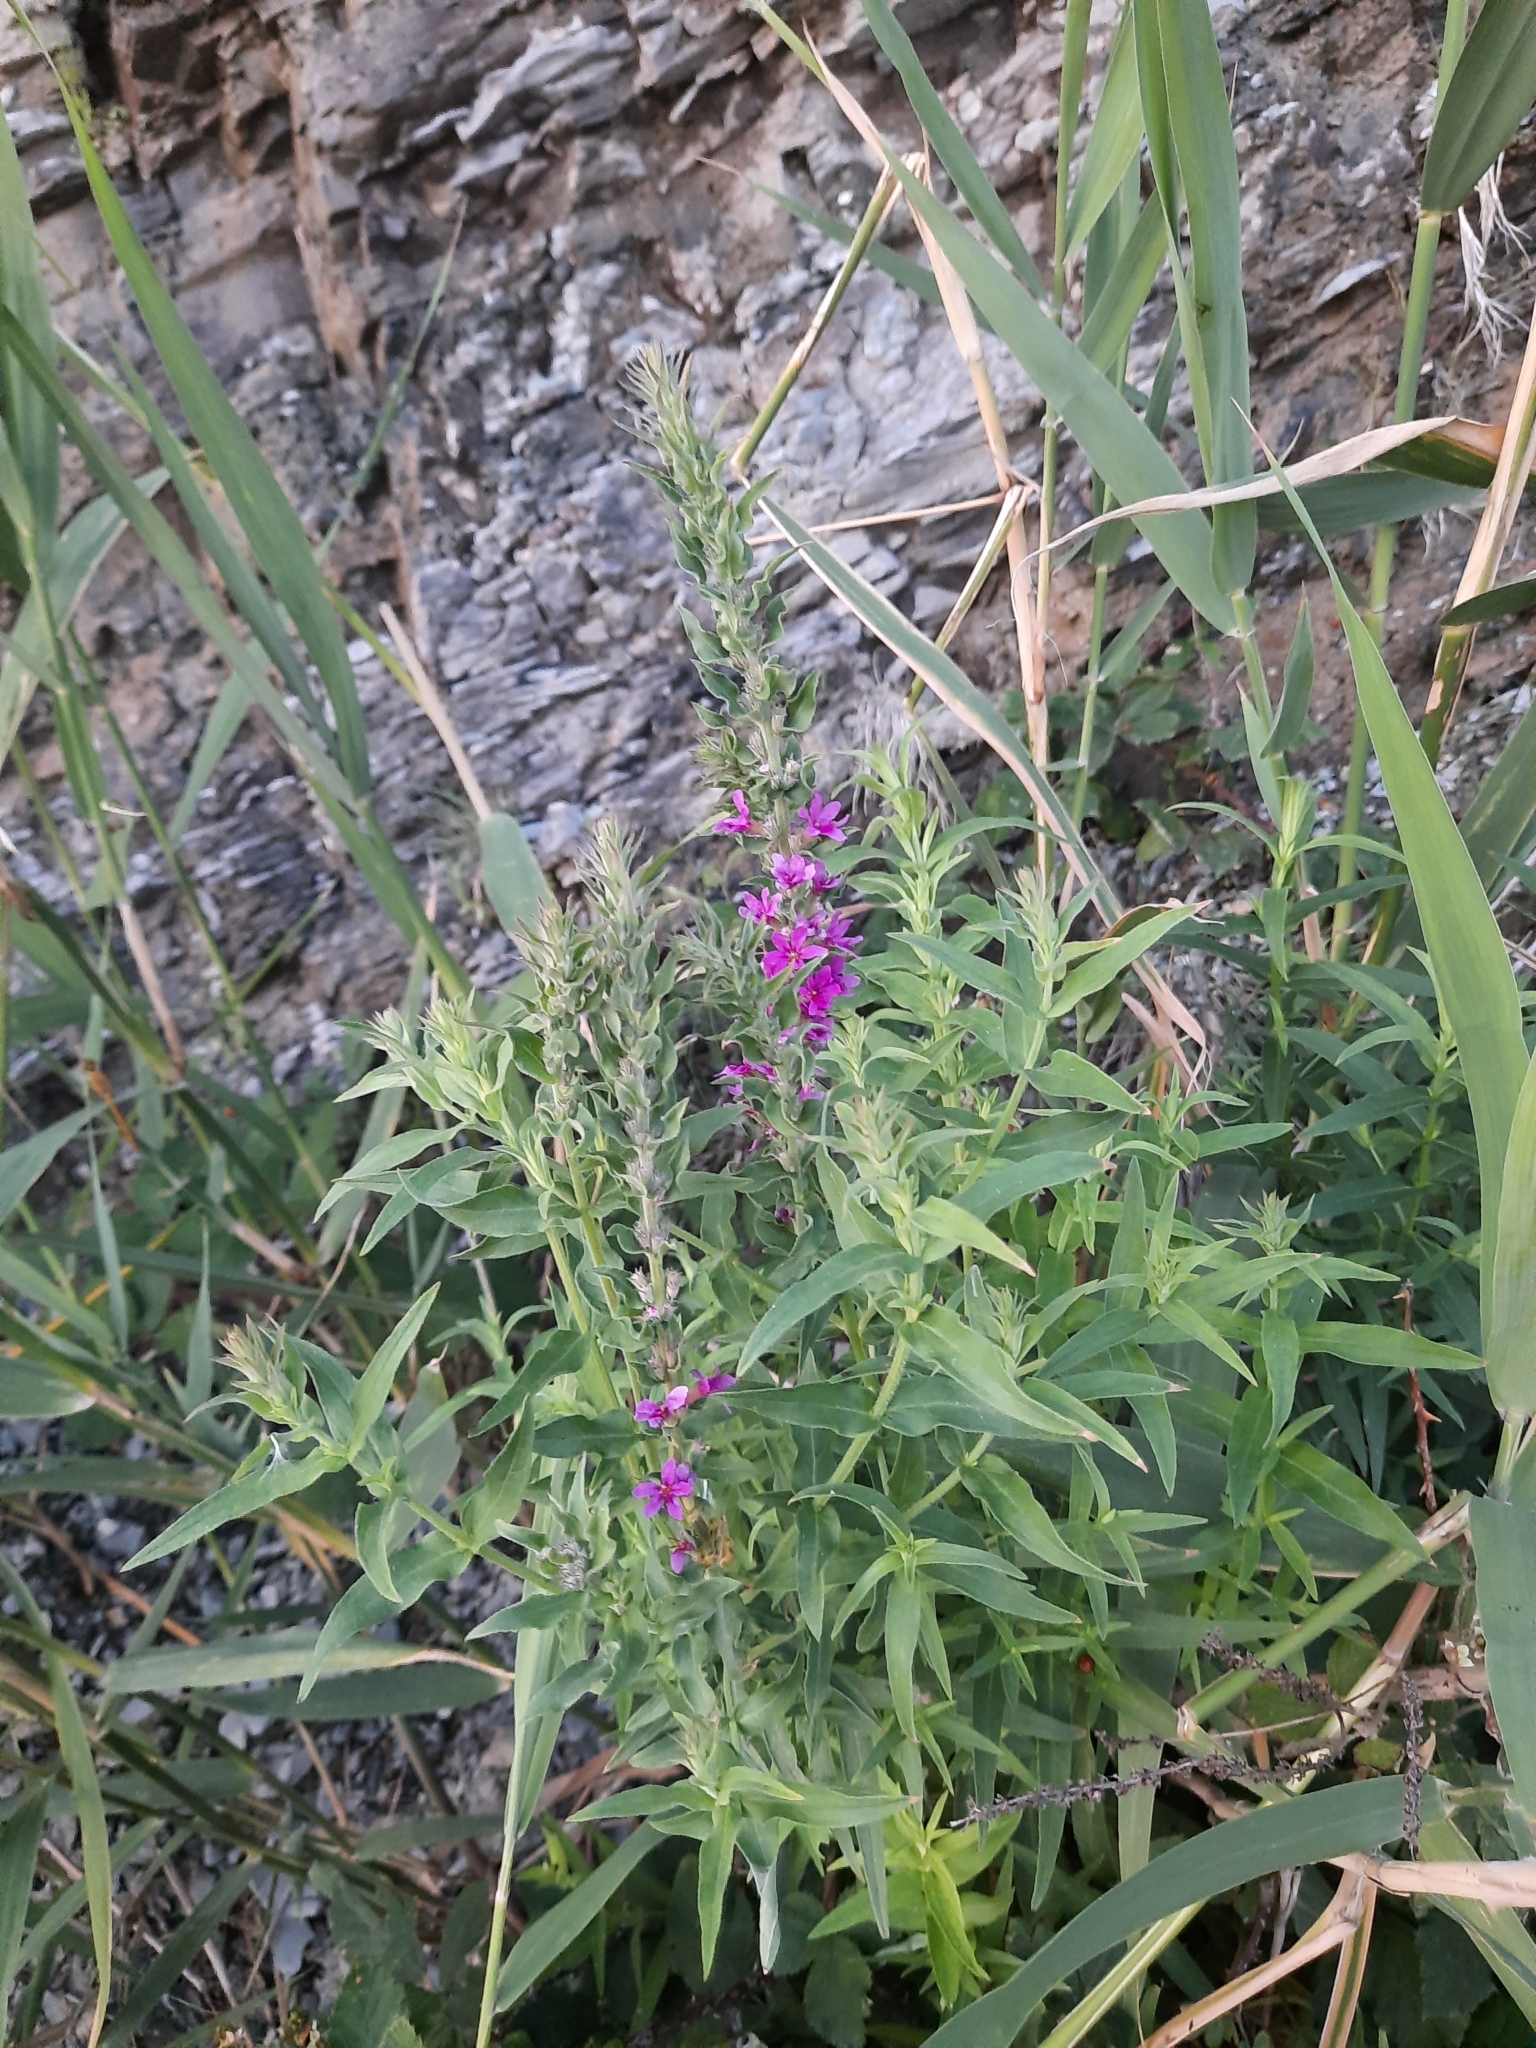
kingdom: Plantae
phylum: Tracheophyta
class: Magnoliopsida
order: Myrtales
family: Lythraceae
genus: Lythrum
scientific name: Lythrum salicaria
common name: Purple loosestrife
